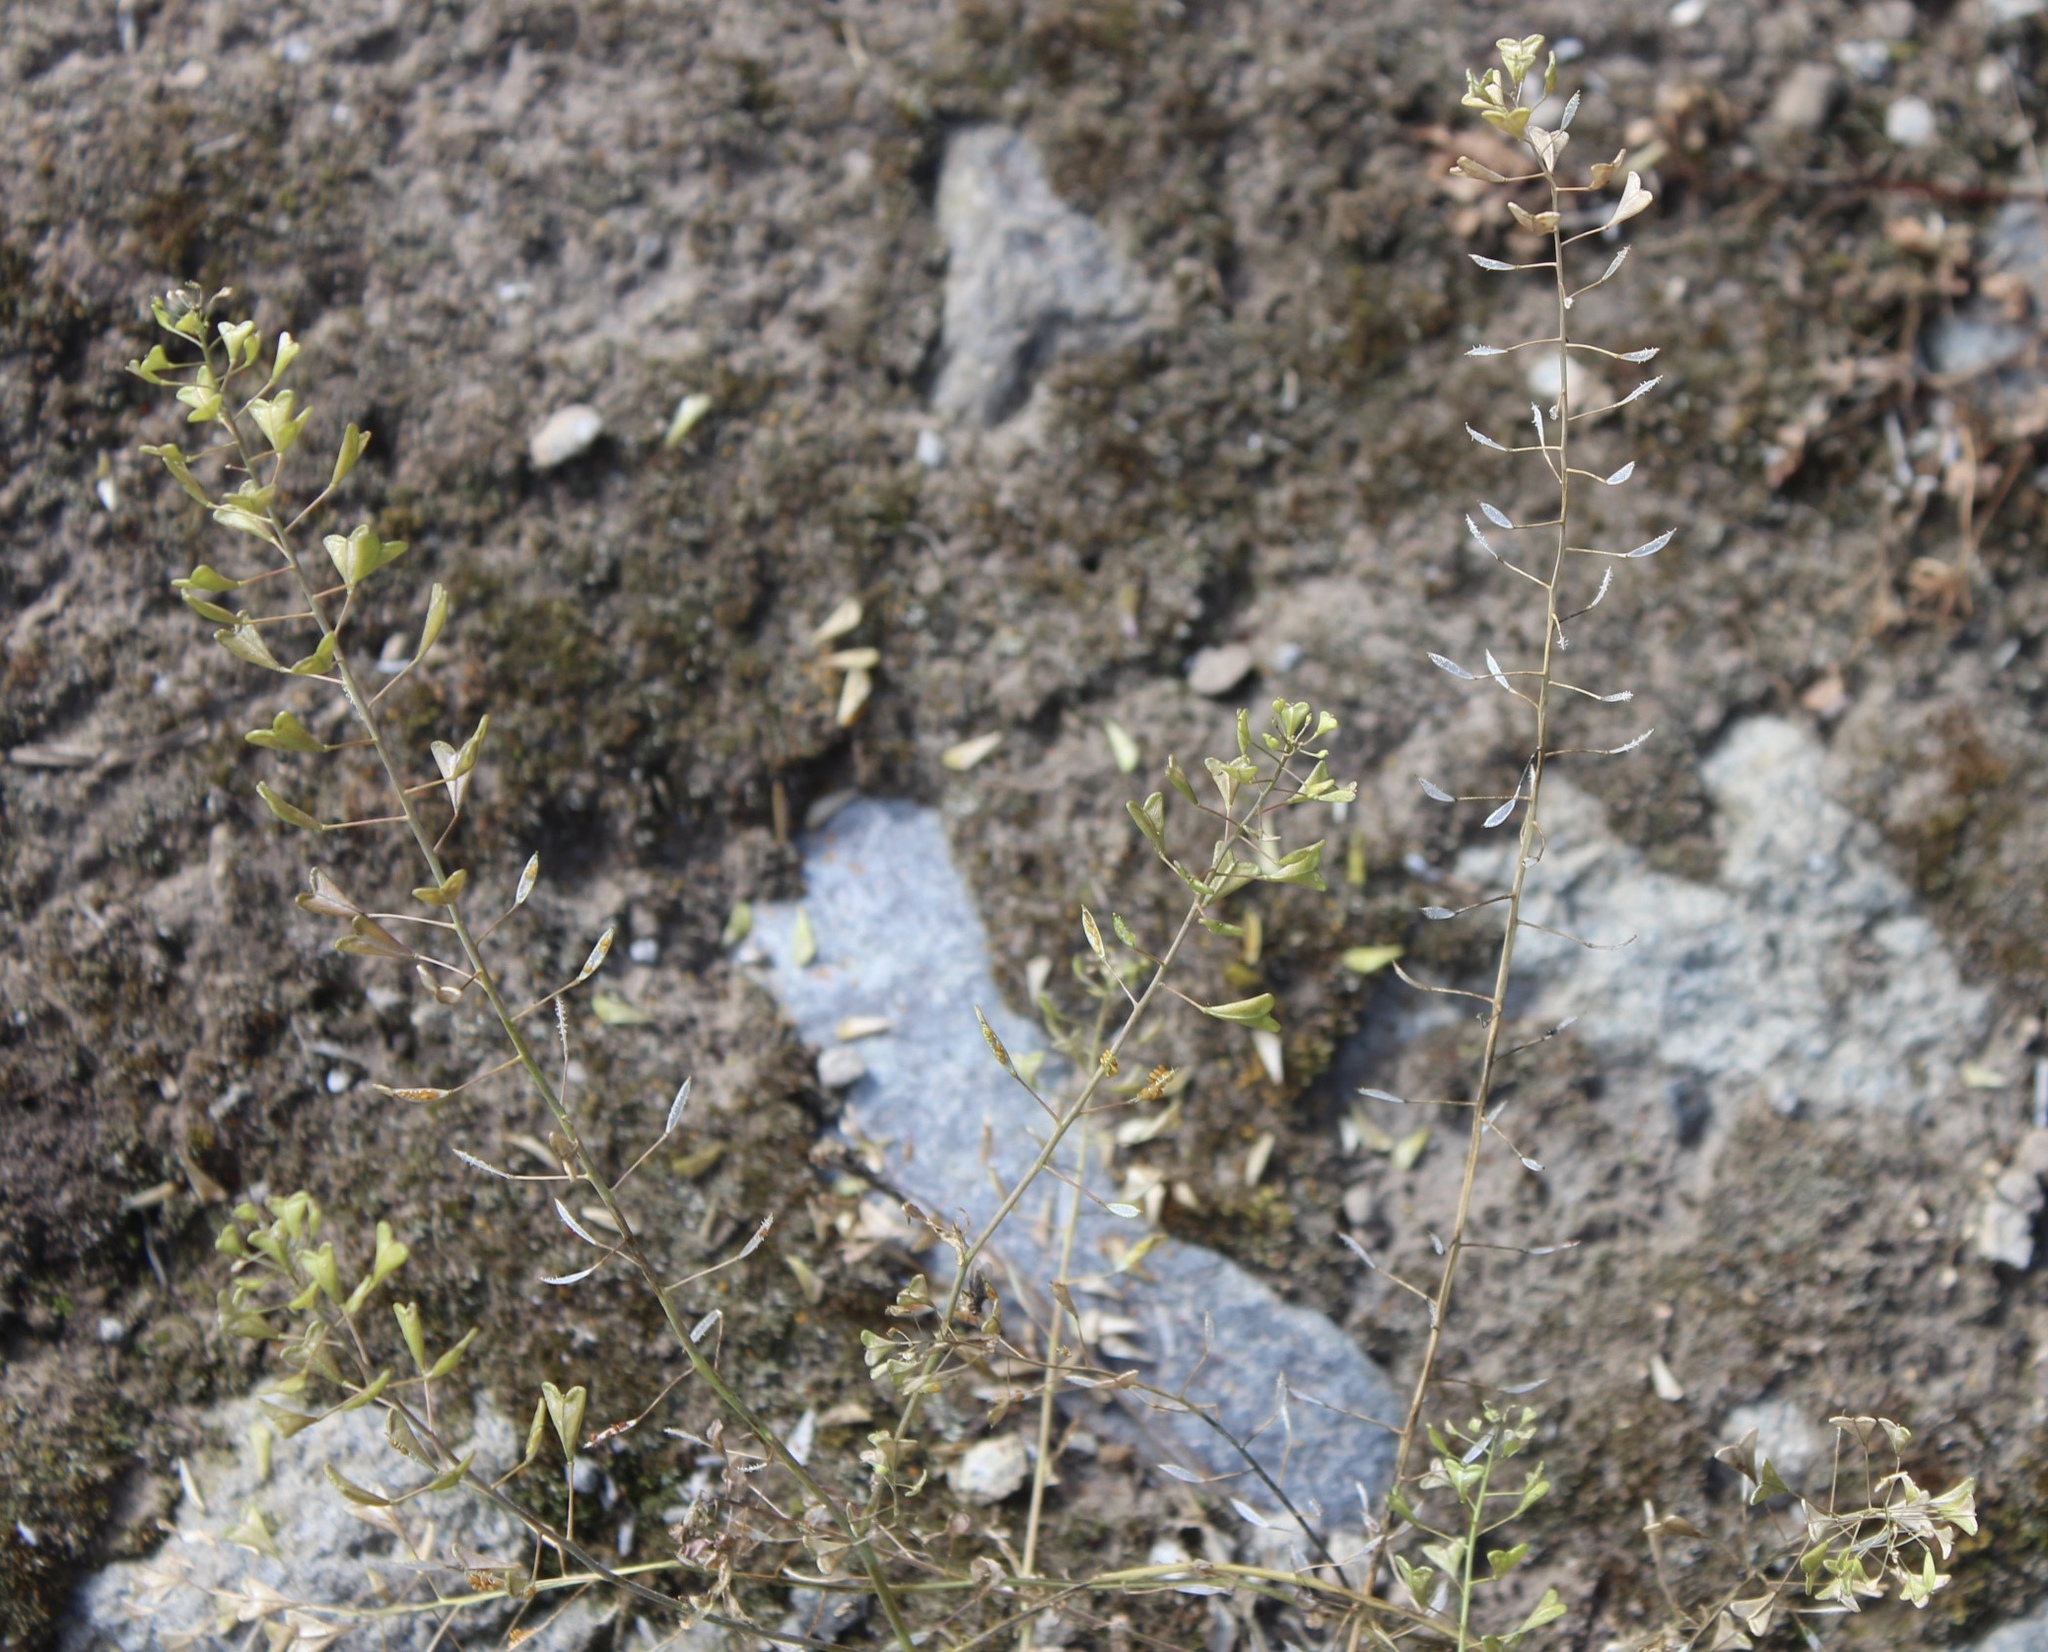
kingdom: Plantae
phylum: Tracheophyta
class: Magnoliopsida
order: Brassicales
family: Brassicaceae
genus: Capsella
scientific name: Capsella bursa-pastoris
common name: Shepherd's purse
